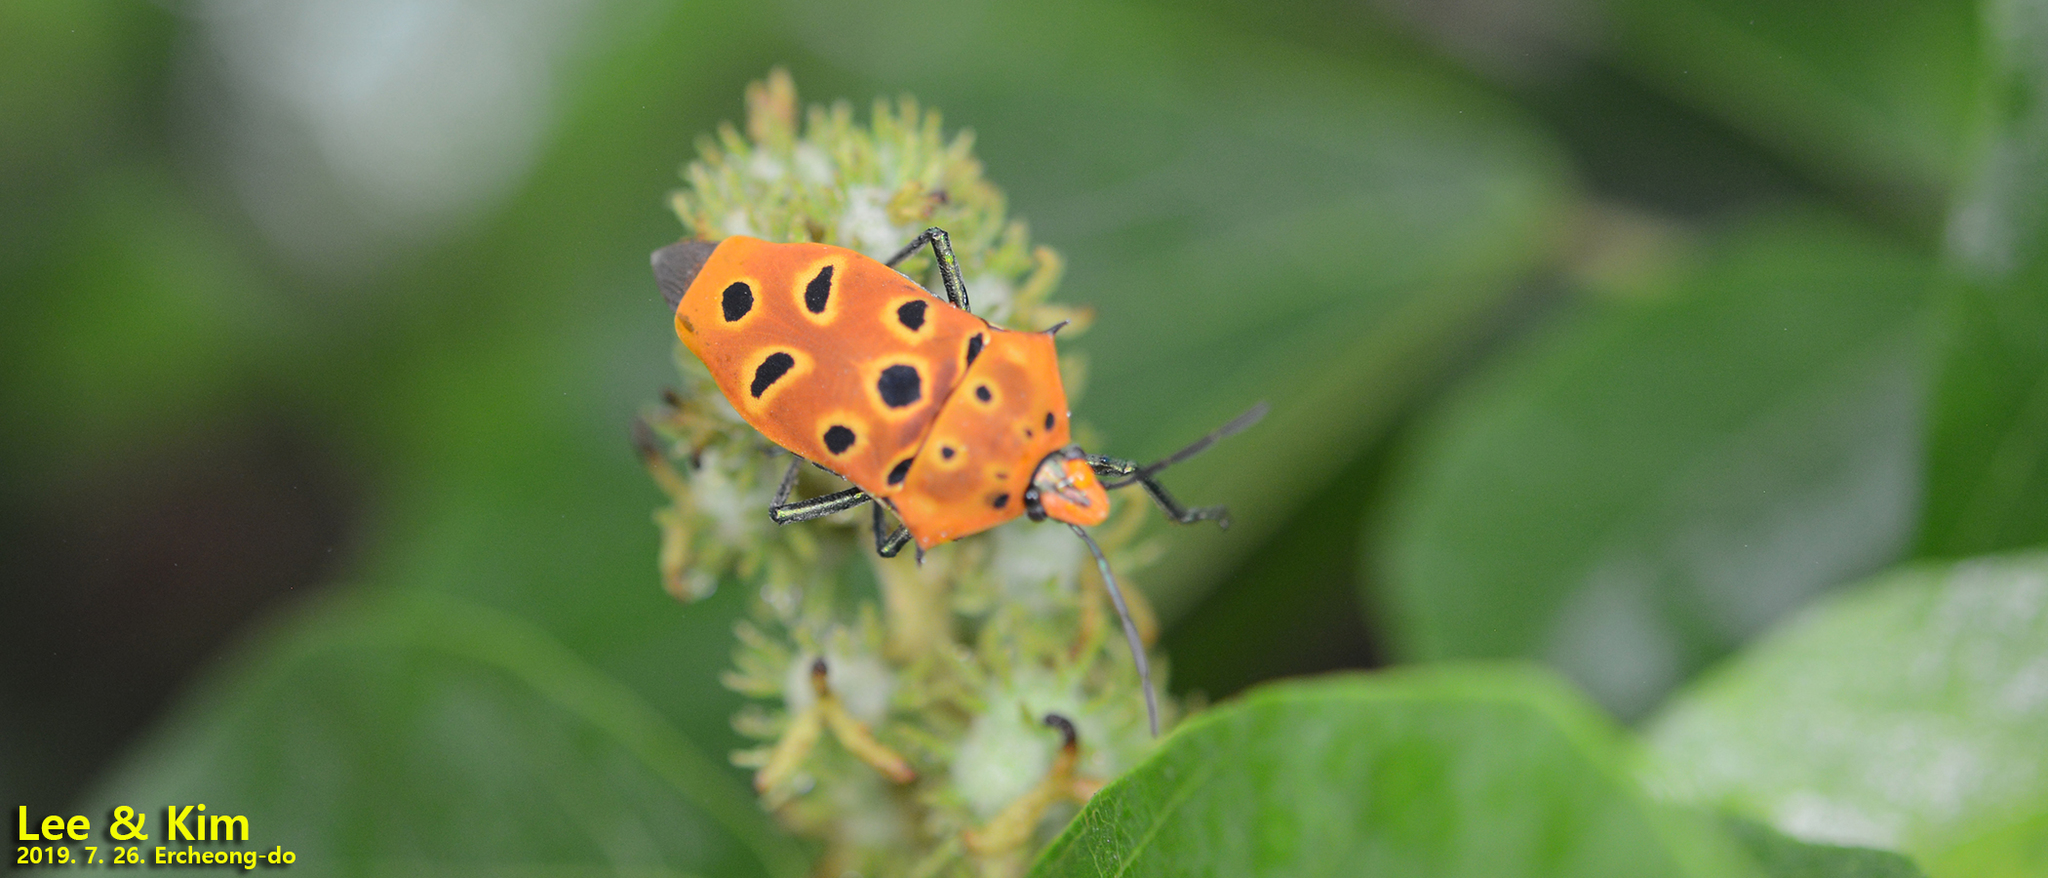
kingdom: Animalia
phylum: Arthropoda
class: Insecta
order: Hemiptera
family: Scutelleridae
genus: Cantao
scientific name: Cantao ocellatus
